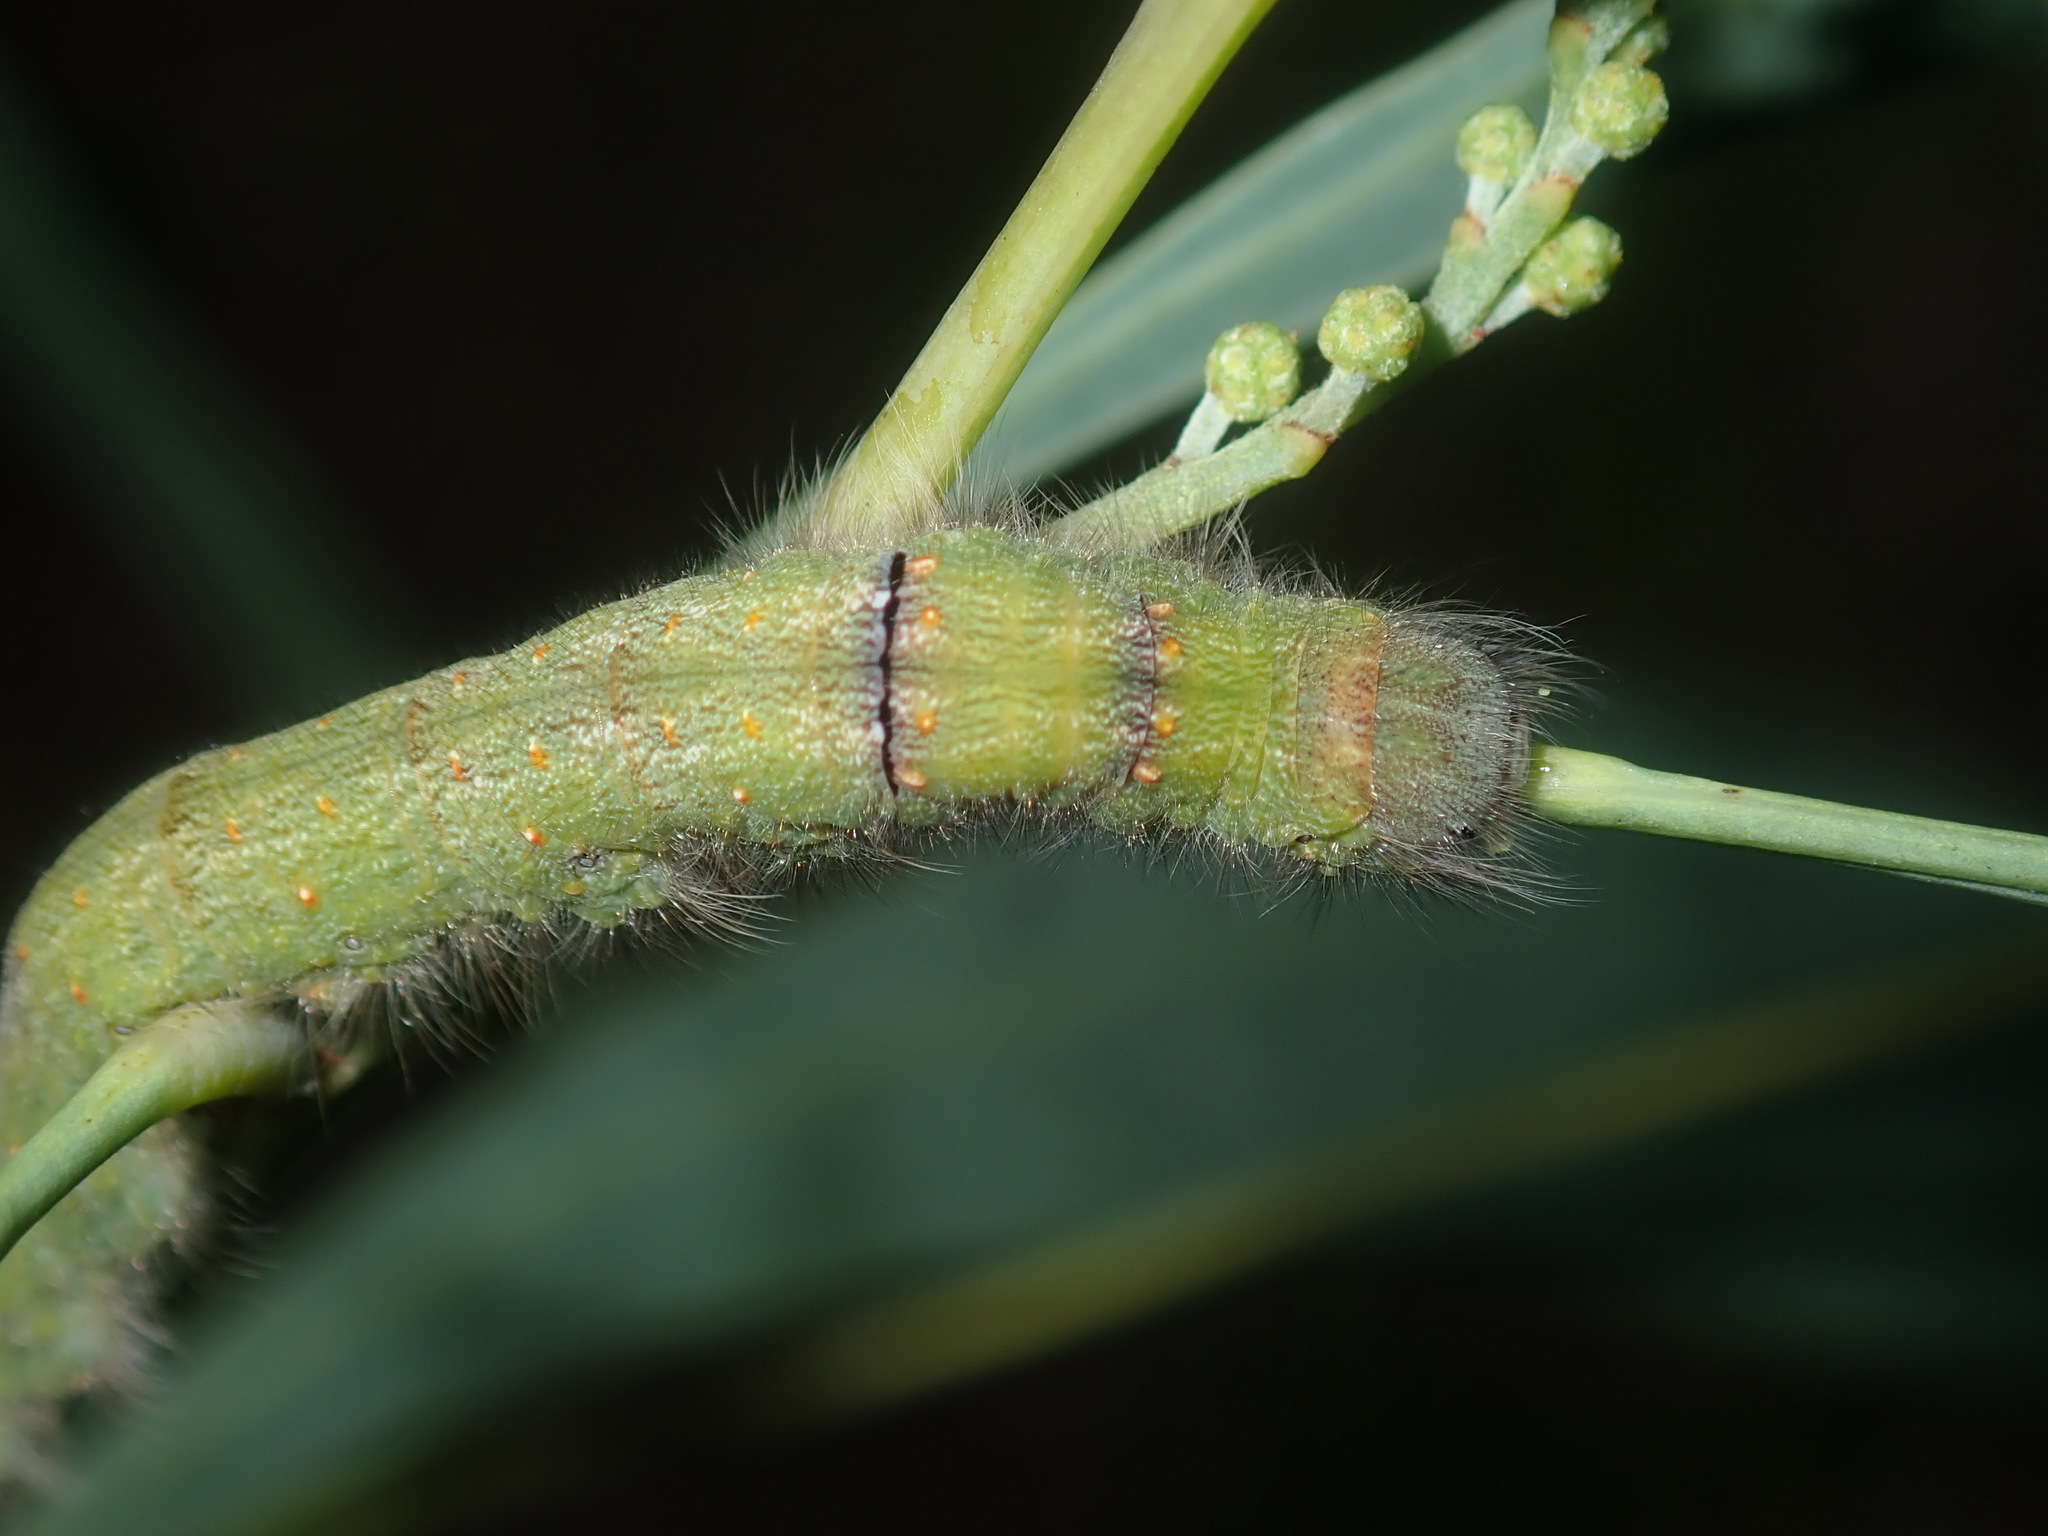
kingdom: Animalia
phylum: Arthropoda
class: Insecta
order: Lepidoptera
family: Lasiocampidae
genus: Pararguda
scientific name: Pararguda nasuta
